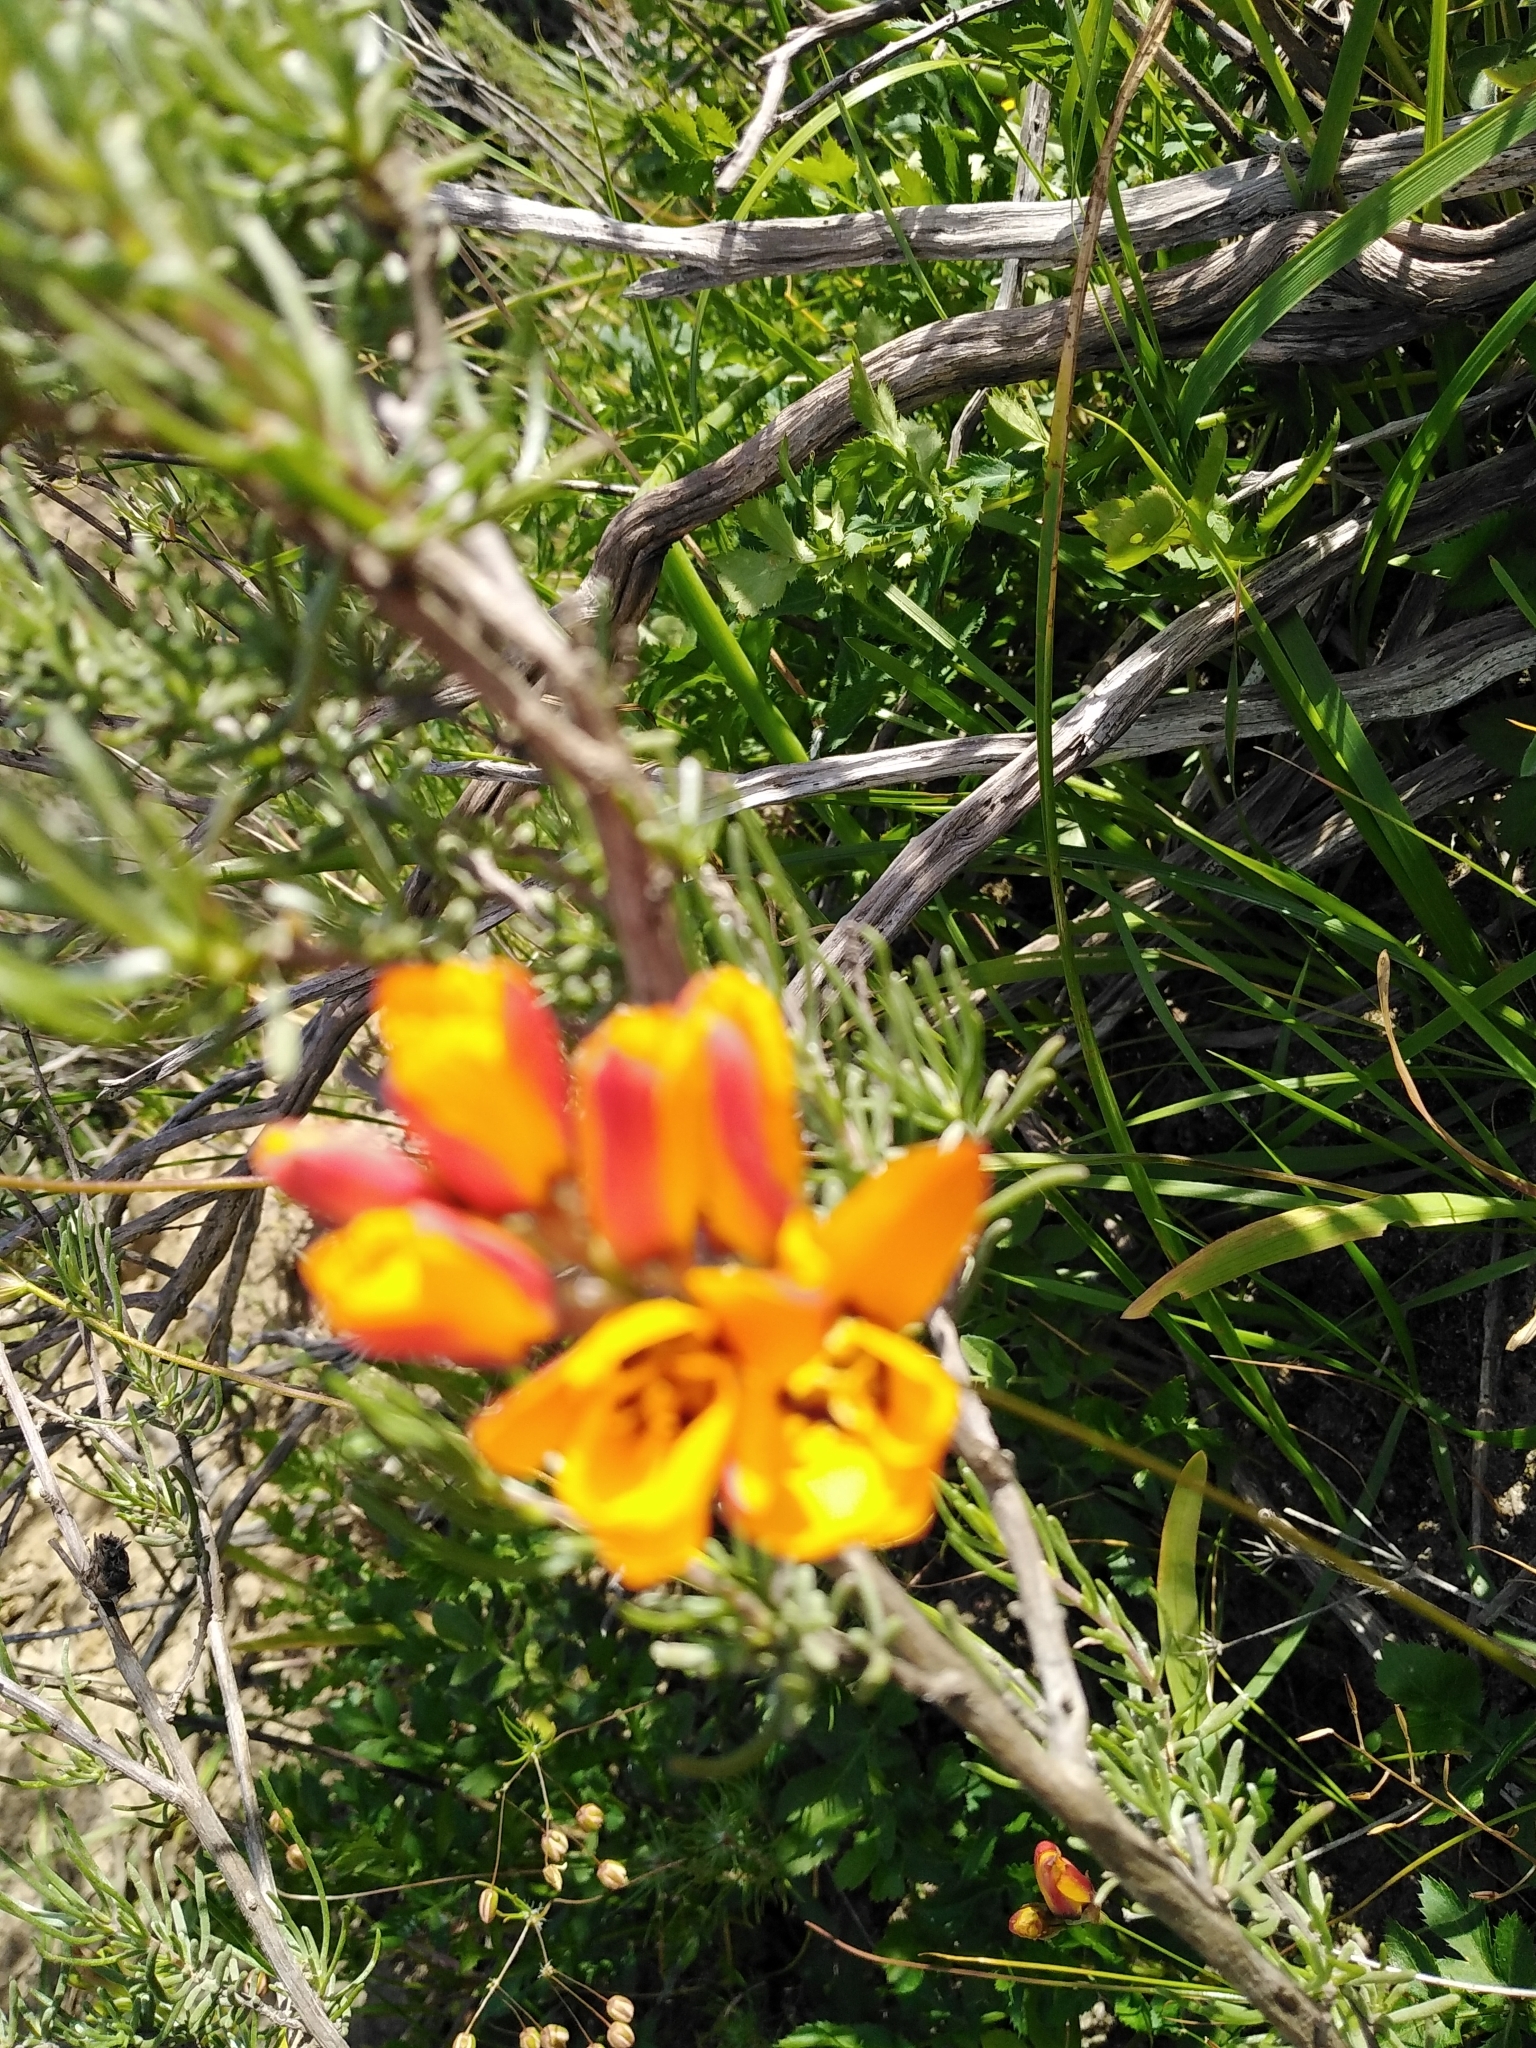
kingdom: Plantae
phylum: Tracheophyta
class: Liliopsida
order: Asparagales
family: Iridaceae
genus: Ixia
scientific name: Ixia maculata
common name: Spotted african cornlily
